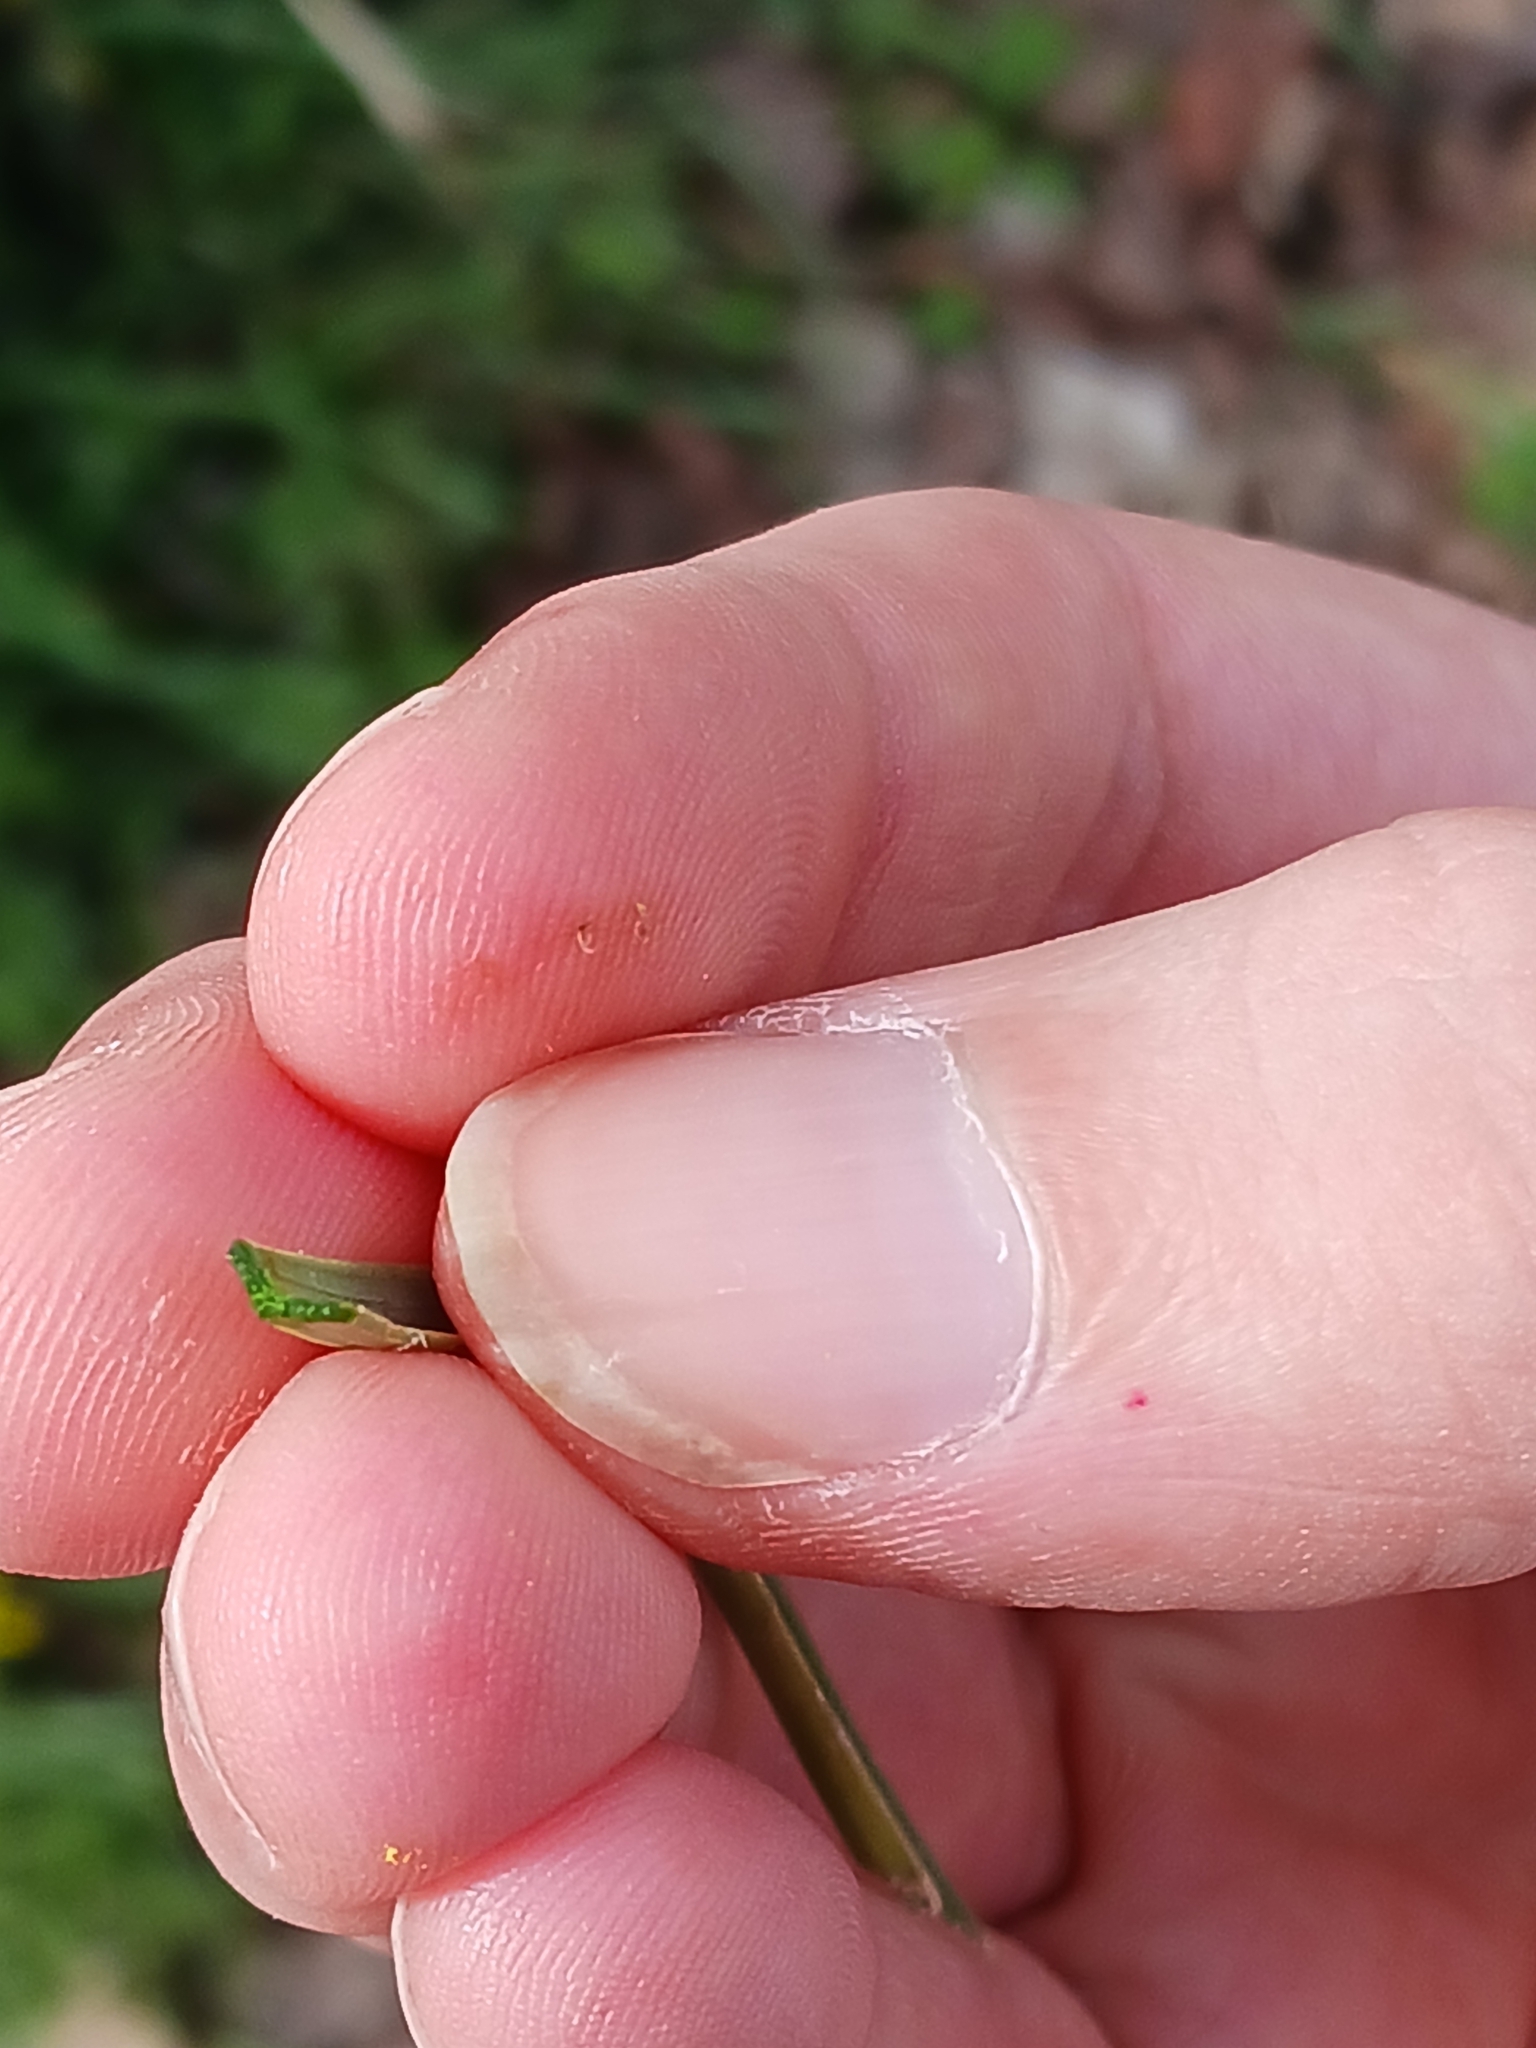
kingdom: Plantae
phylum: Tracheophyta
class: Liliopsida
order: Liliales
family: Liliaceae
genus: Gagea
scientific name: Gagea pratensis
